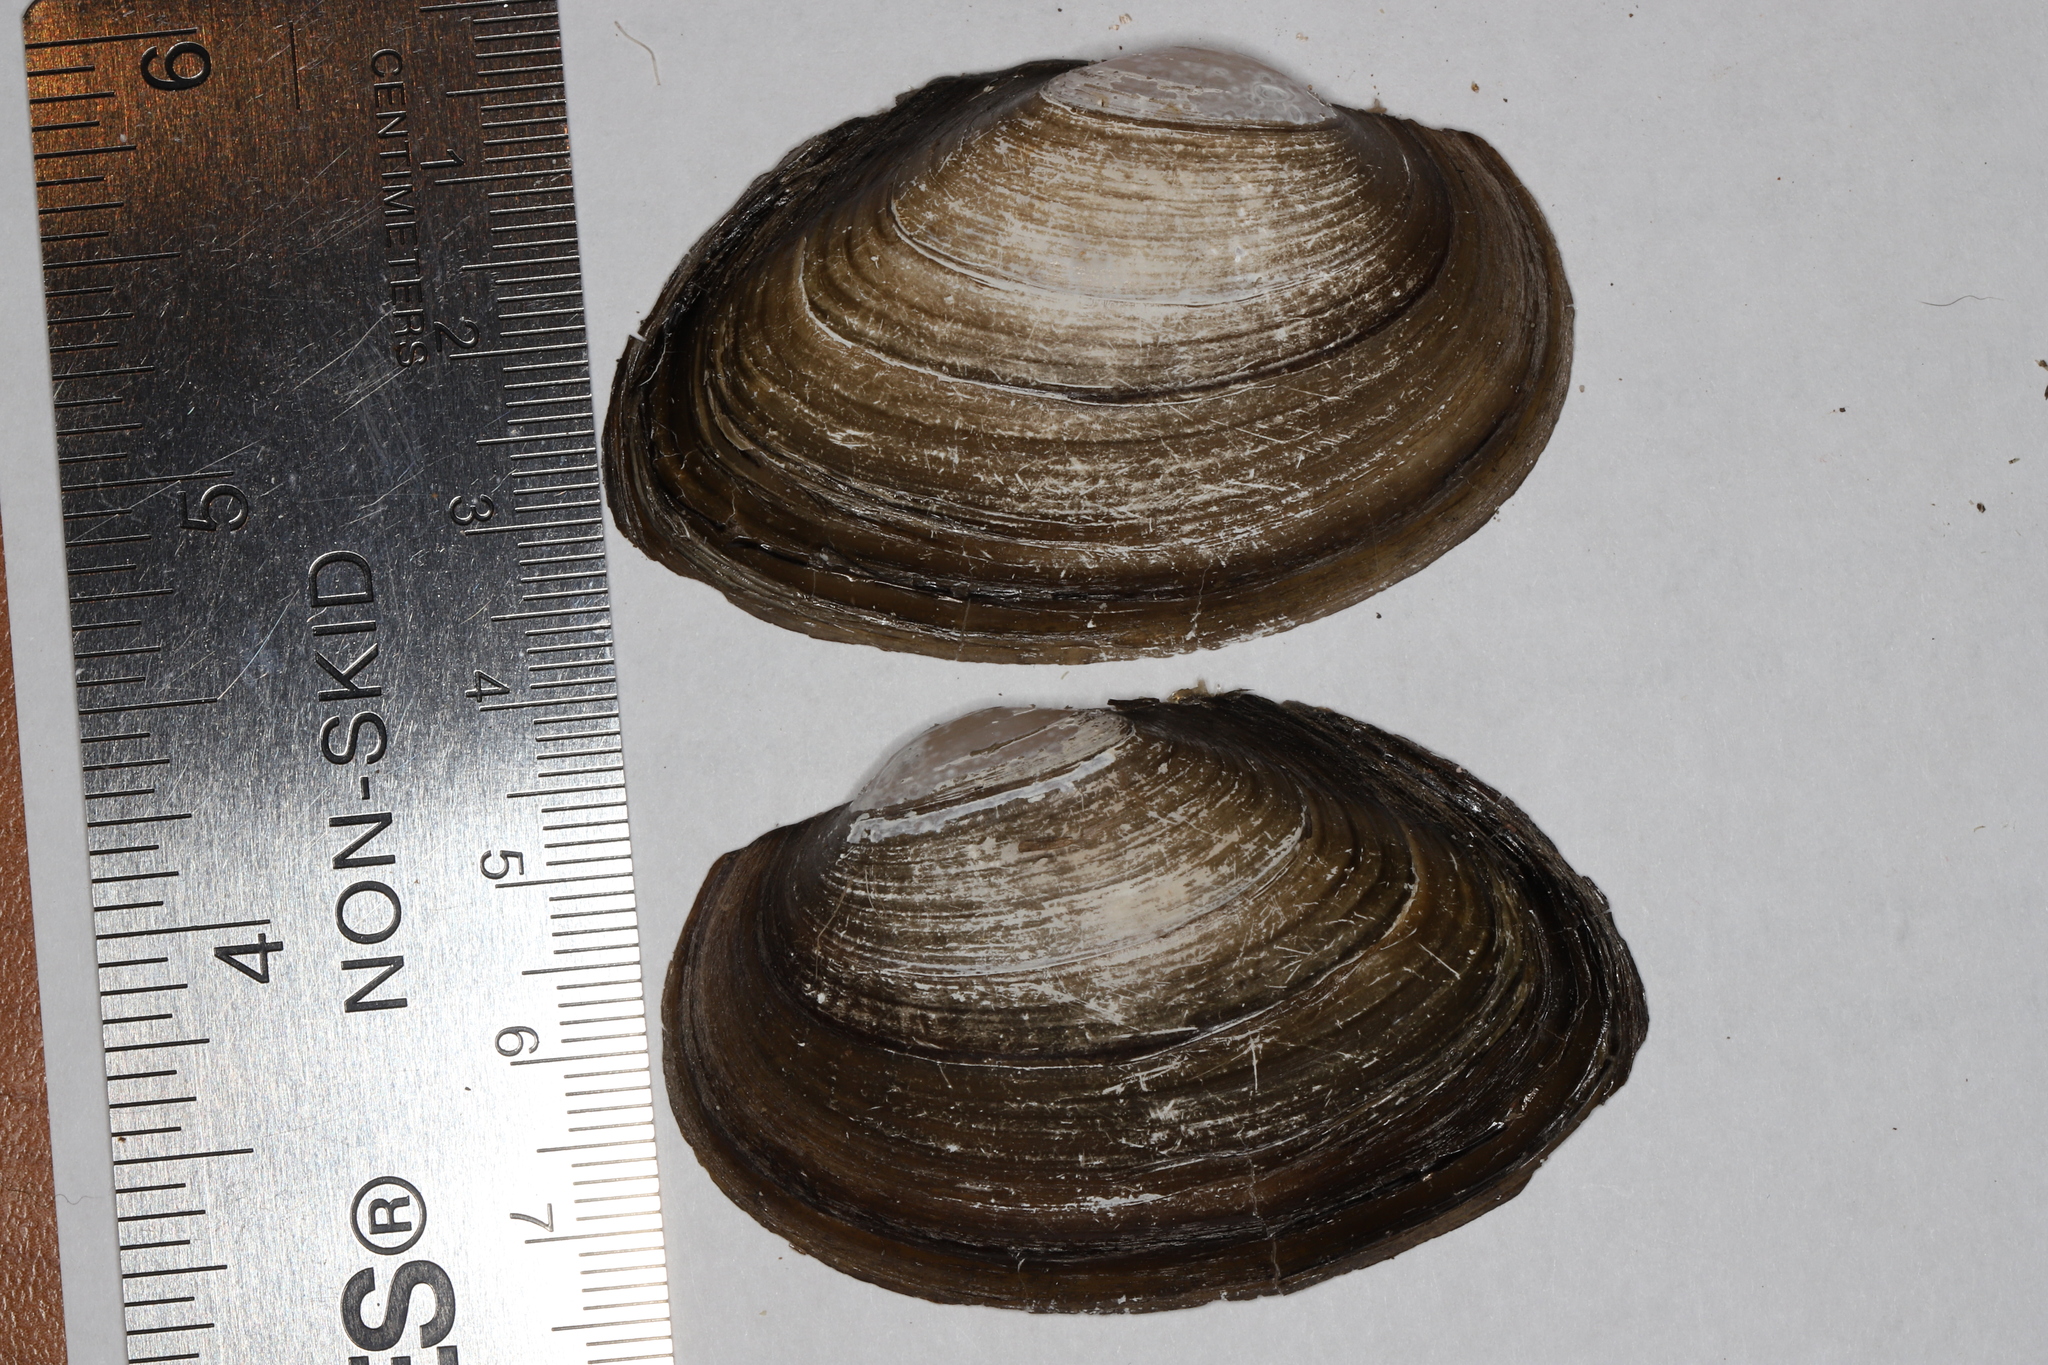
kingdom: Animalia
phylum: Mollusca
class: Bivalvia
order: Unionida
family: Unionidae
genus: Pyganodon
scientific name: Pyganodon grandis
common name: Giant floater
